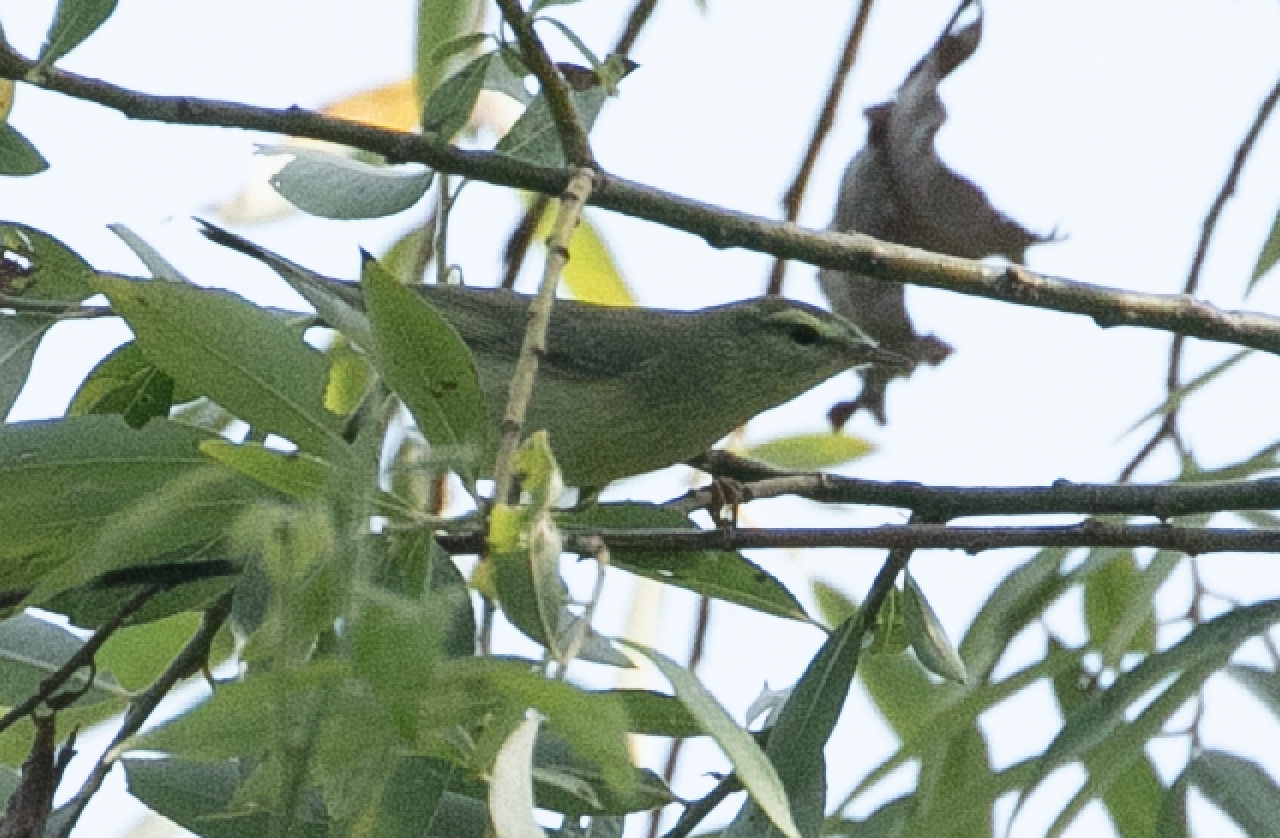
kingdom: Animalia
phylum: Chordata
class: Aves
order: Passeriformes
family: Phylloscopidae
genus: Phylloscopus
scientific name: Phylloscopus trochilus
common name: Willow warbler
